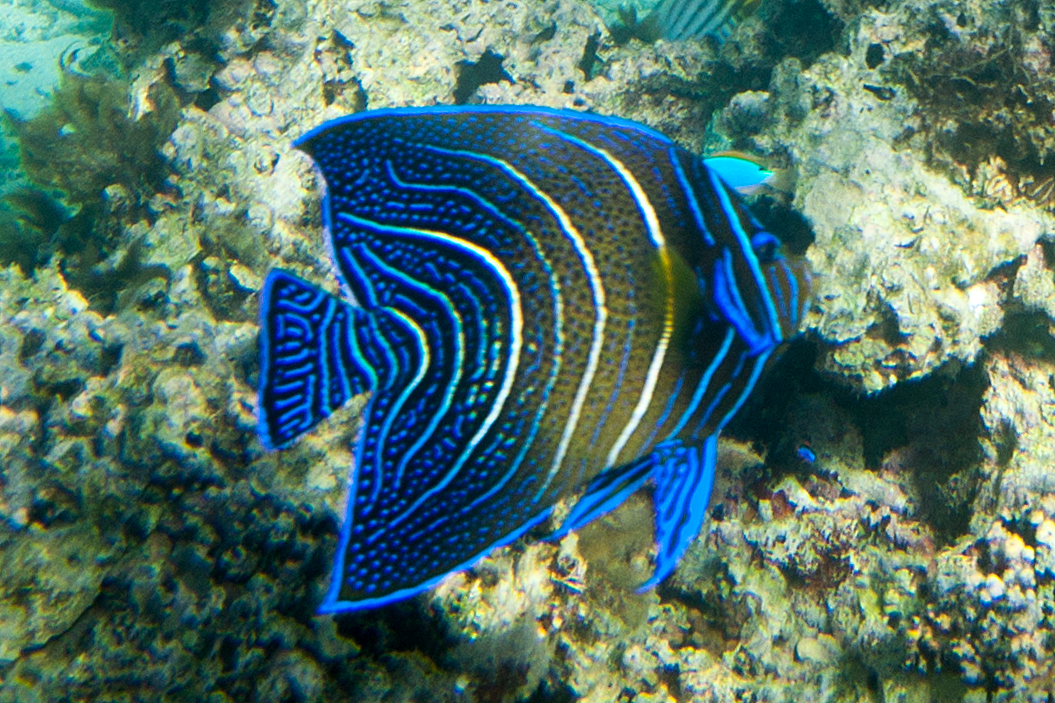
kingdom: Animalia
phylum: Chordata
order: Perciformes
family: Pomacanthidae
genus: Pomacanthus
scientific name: Pomacanthus semicirculatus
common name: Semicircle angelfish
